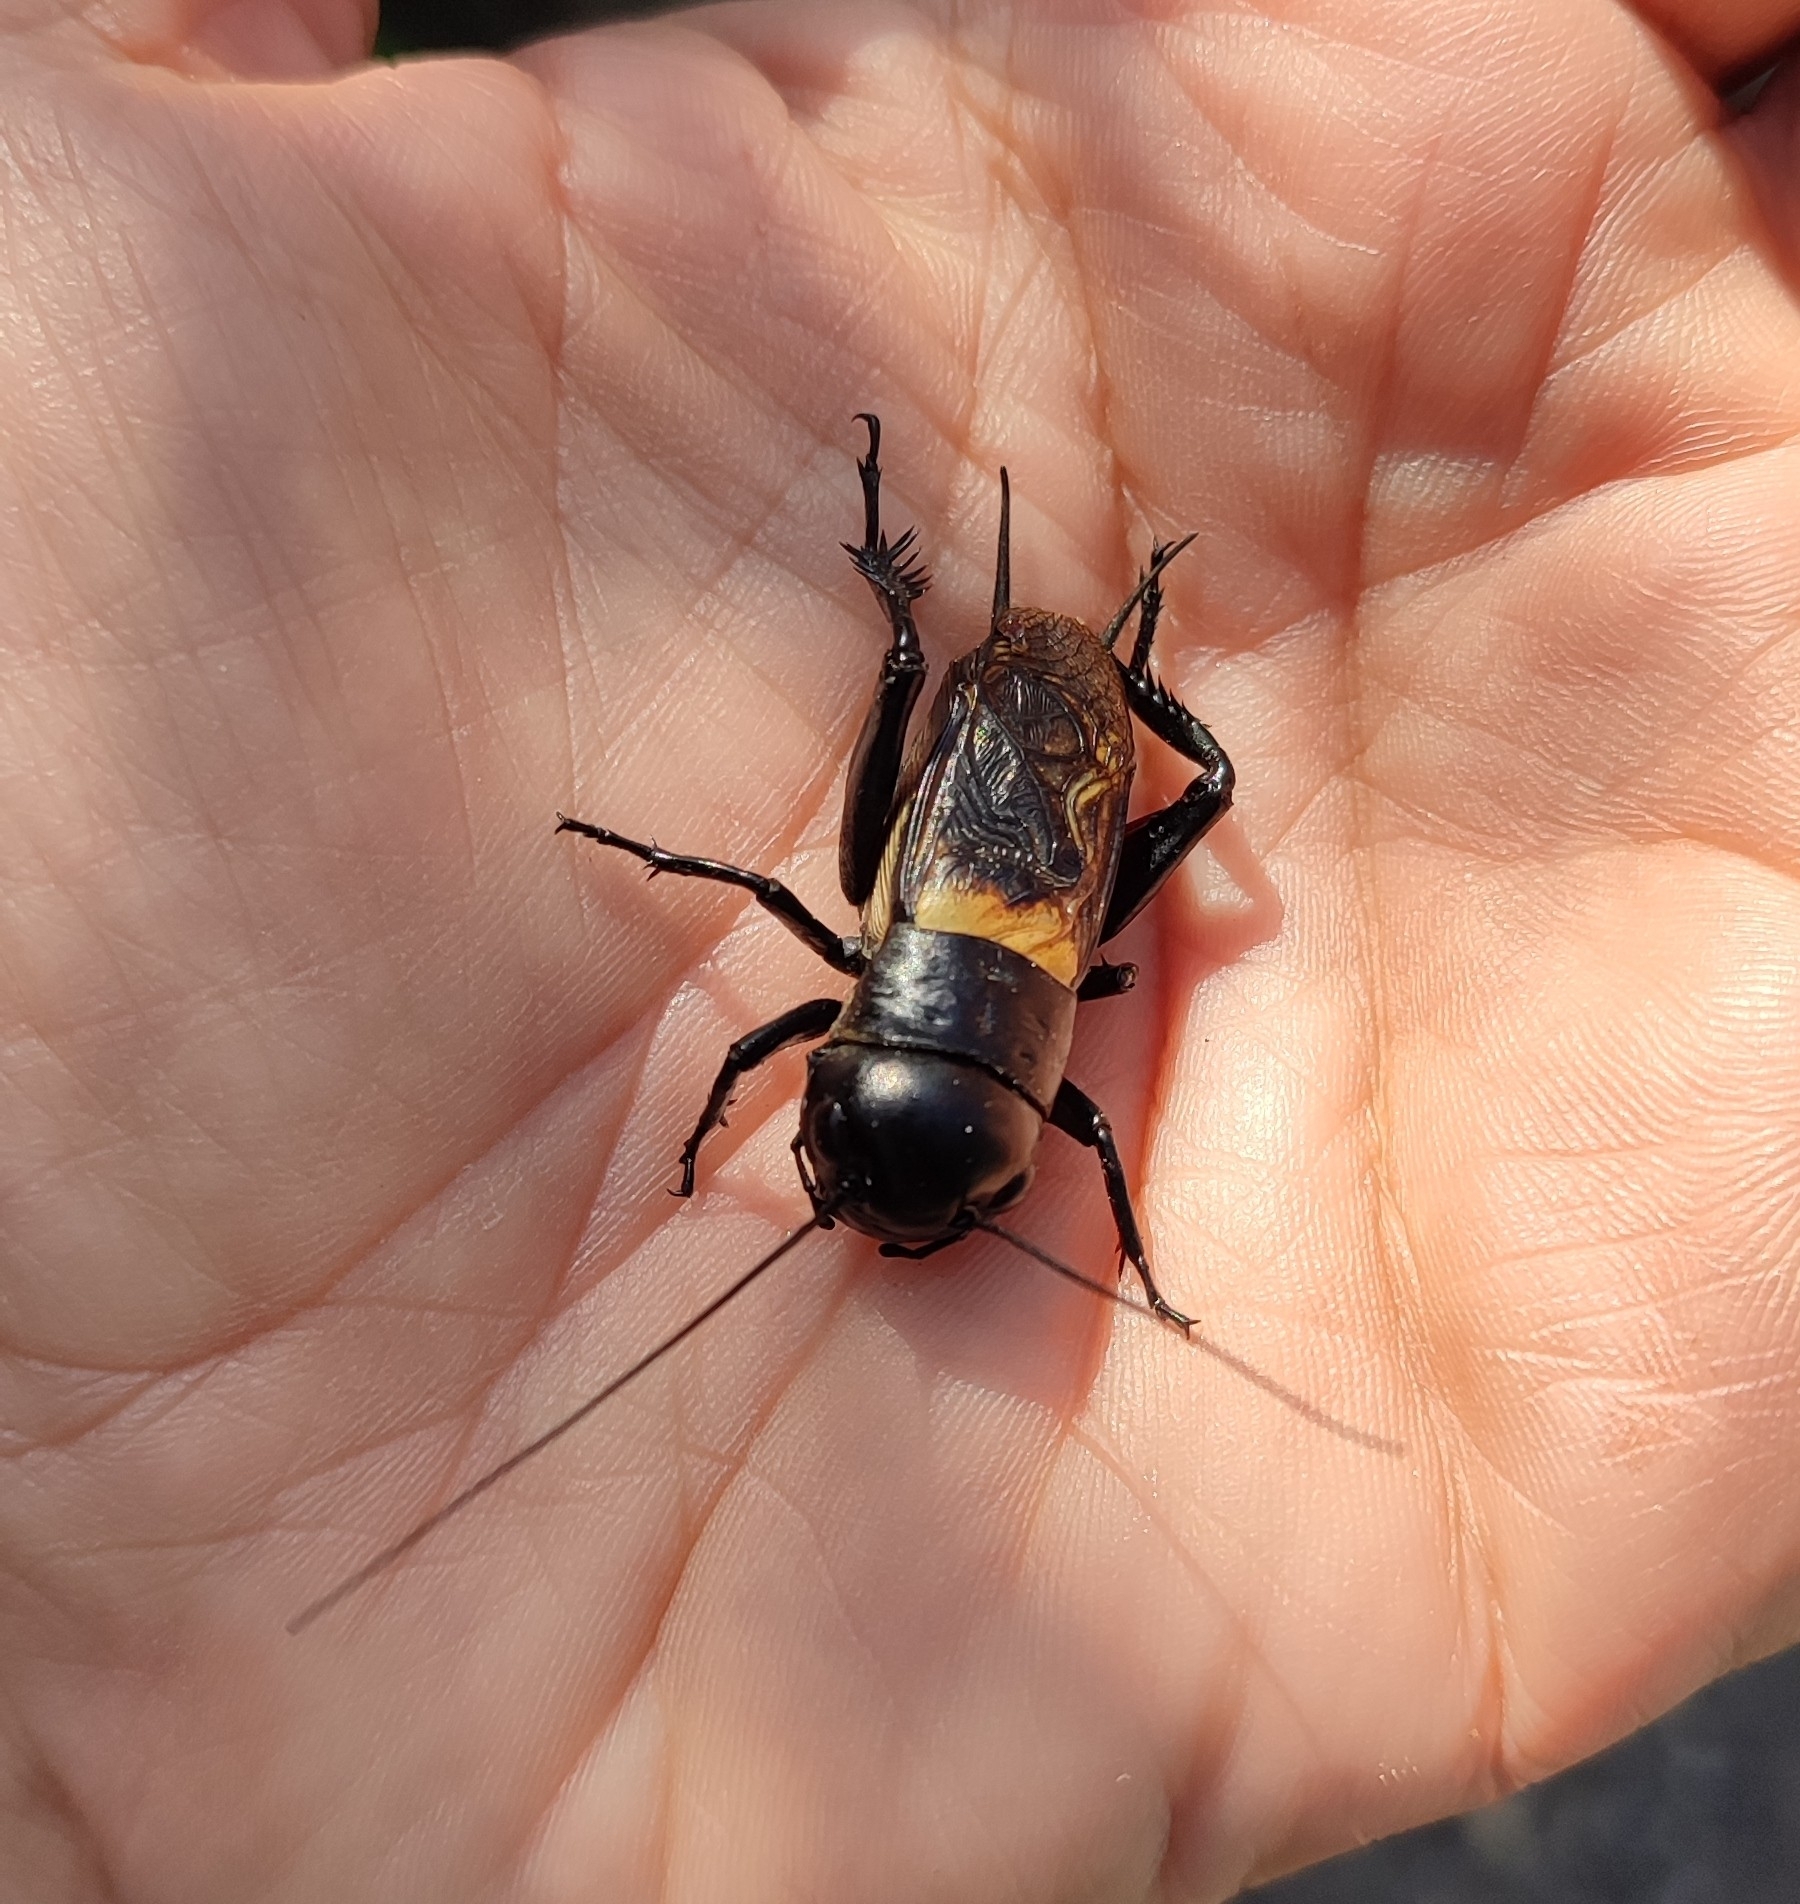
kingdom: Animalia
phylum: Arthropoda
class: Insecta
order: Orthoptera
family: Gryllidae
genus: Gryllus
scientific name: Gryllus campestris
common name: Field cricket
